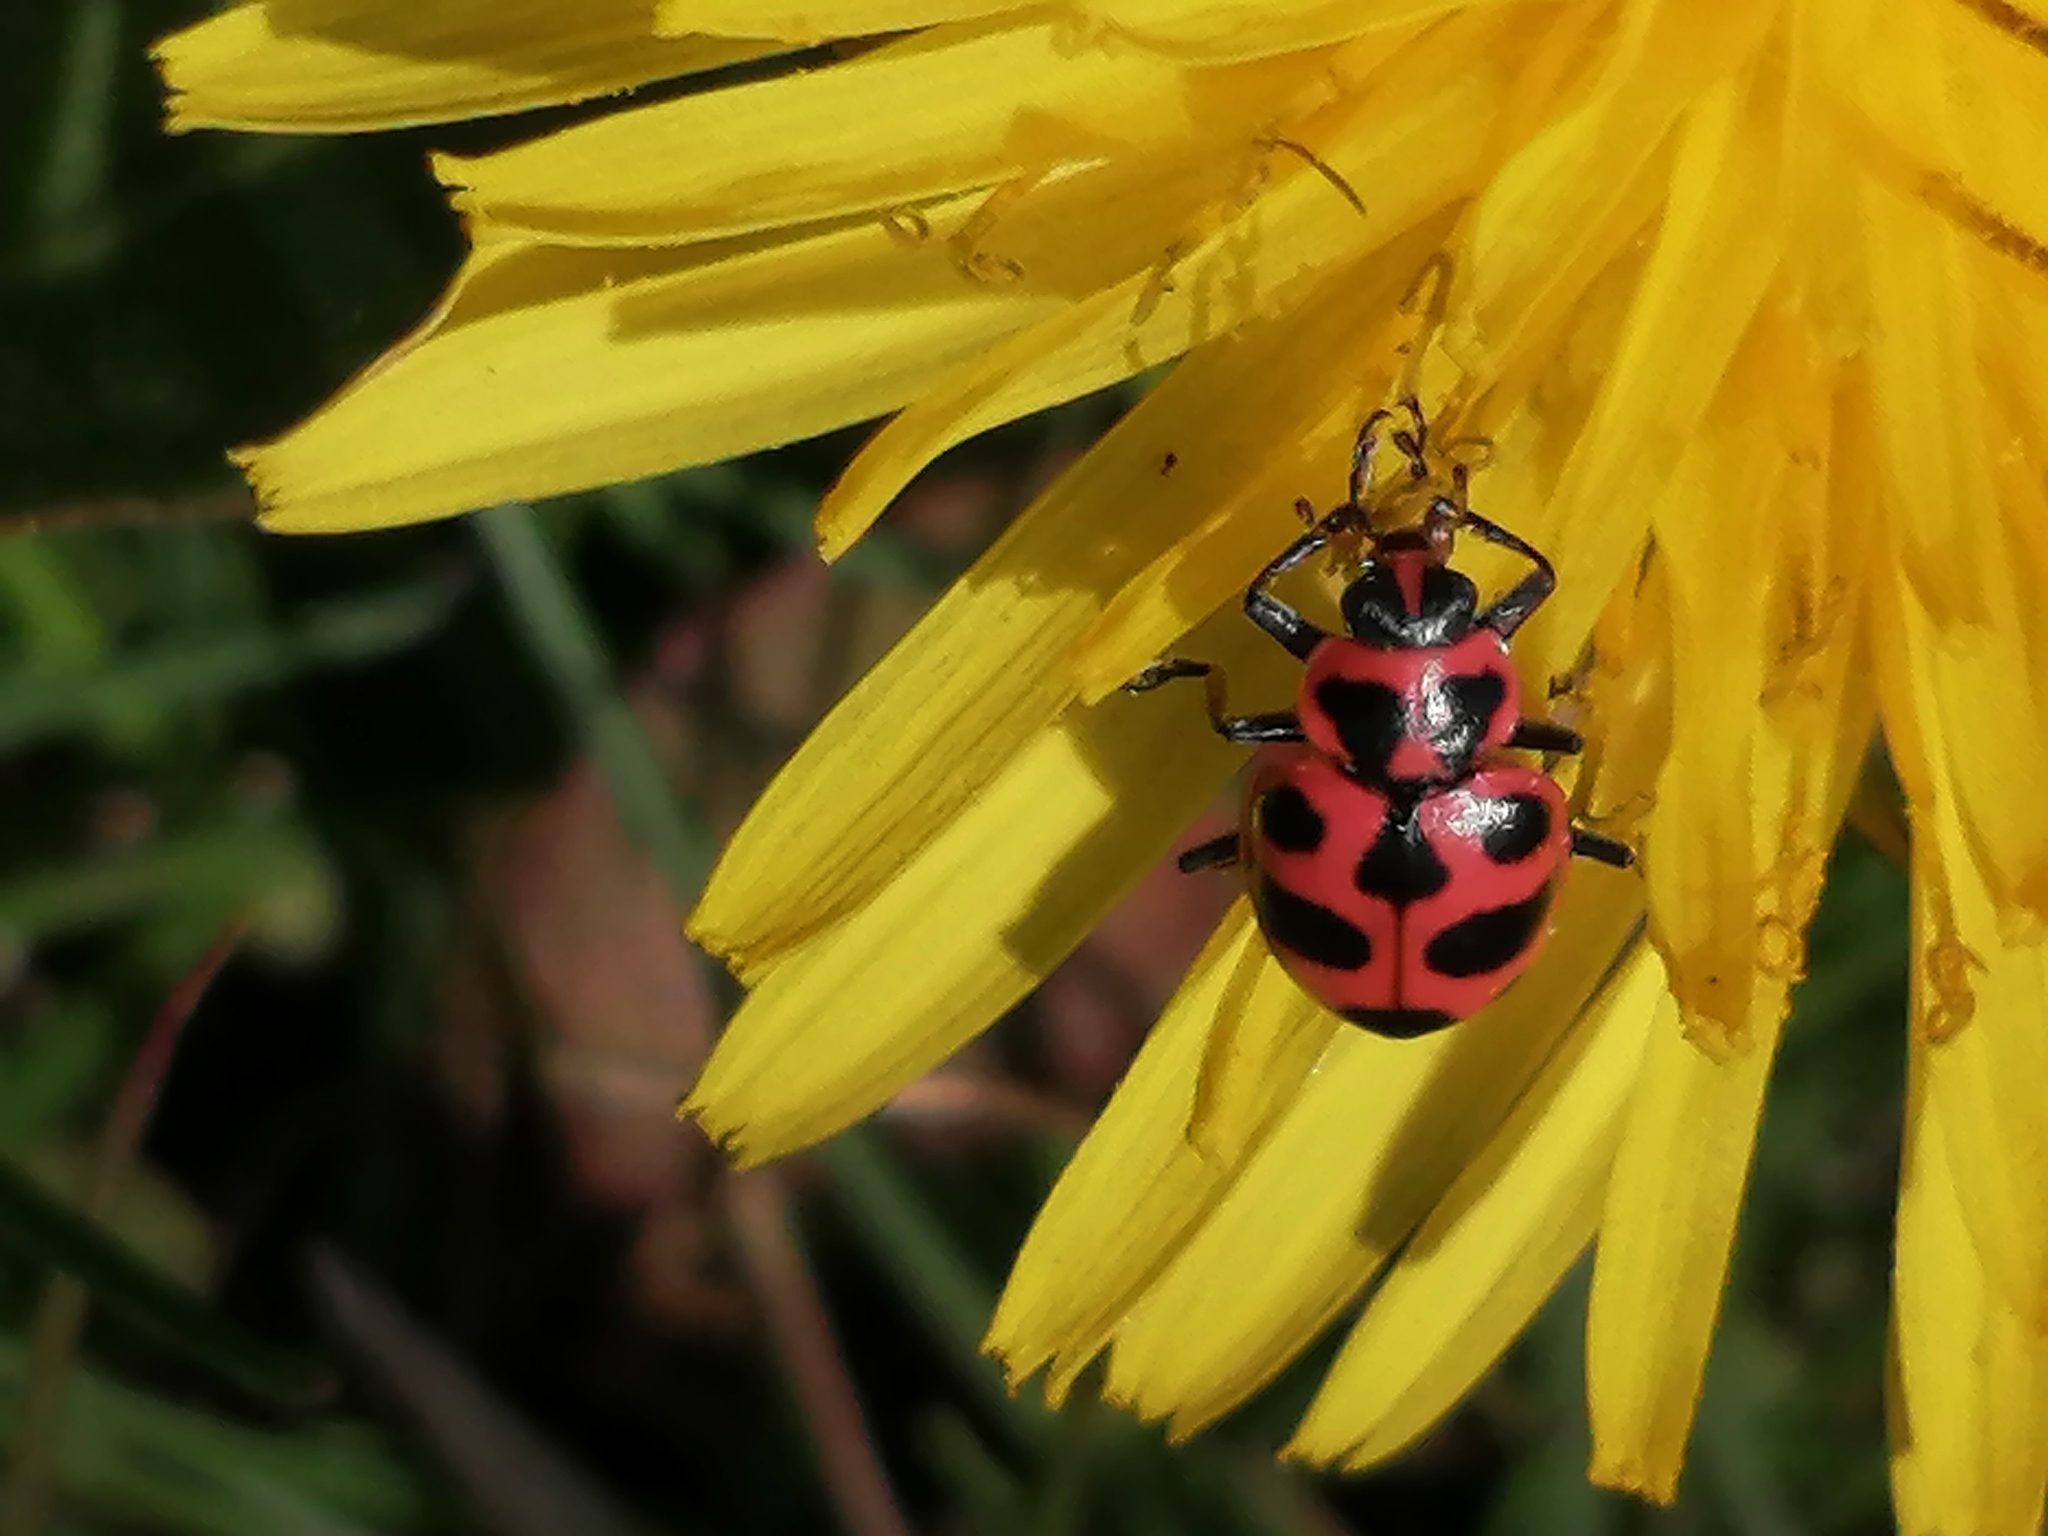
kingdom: Animalia
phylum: Arthropoda
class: Insecta
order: Coleoptera
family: Coccinellidae
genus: Coleomegilla
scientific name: Coleomegilla maculata
